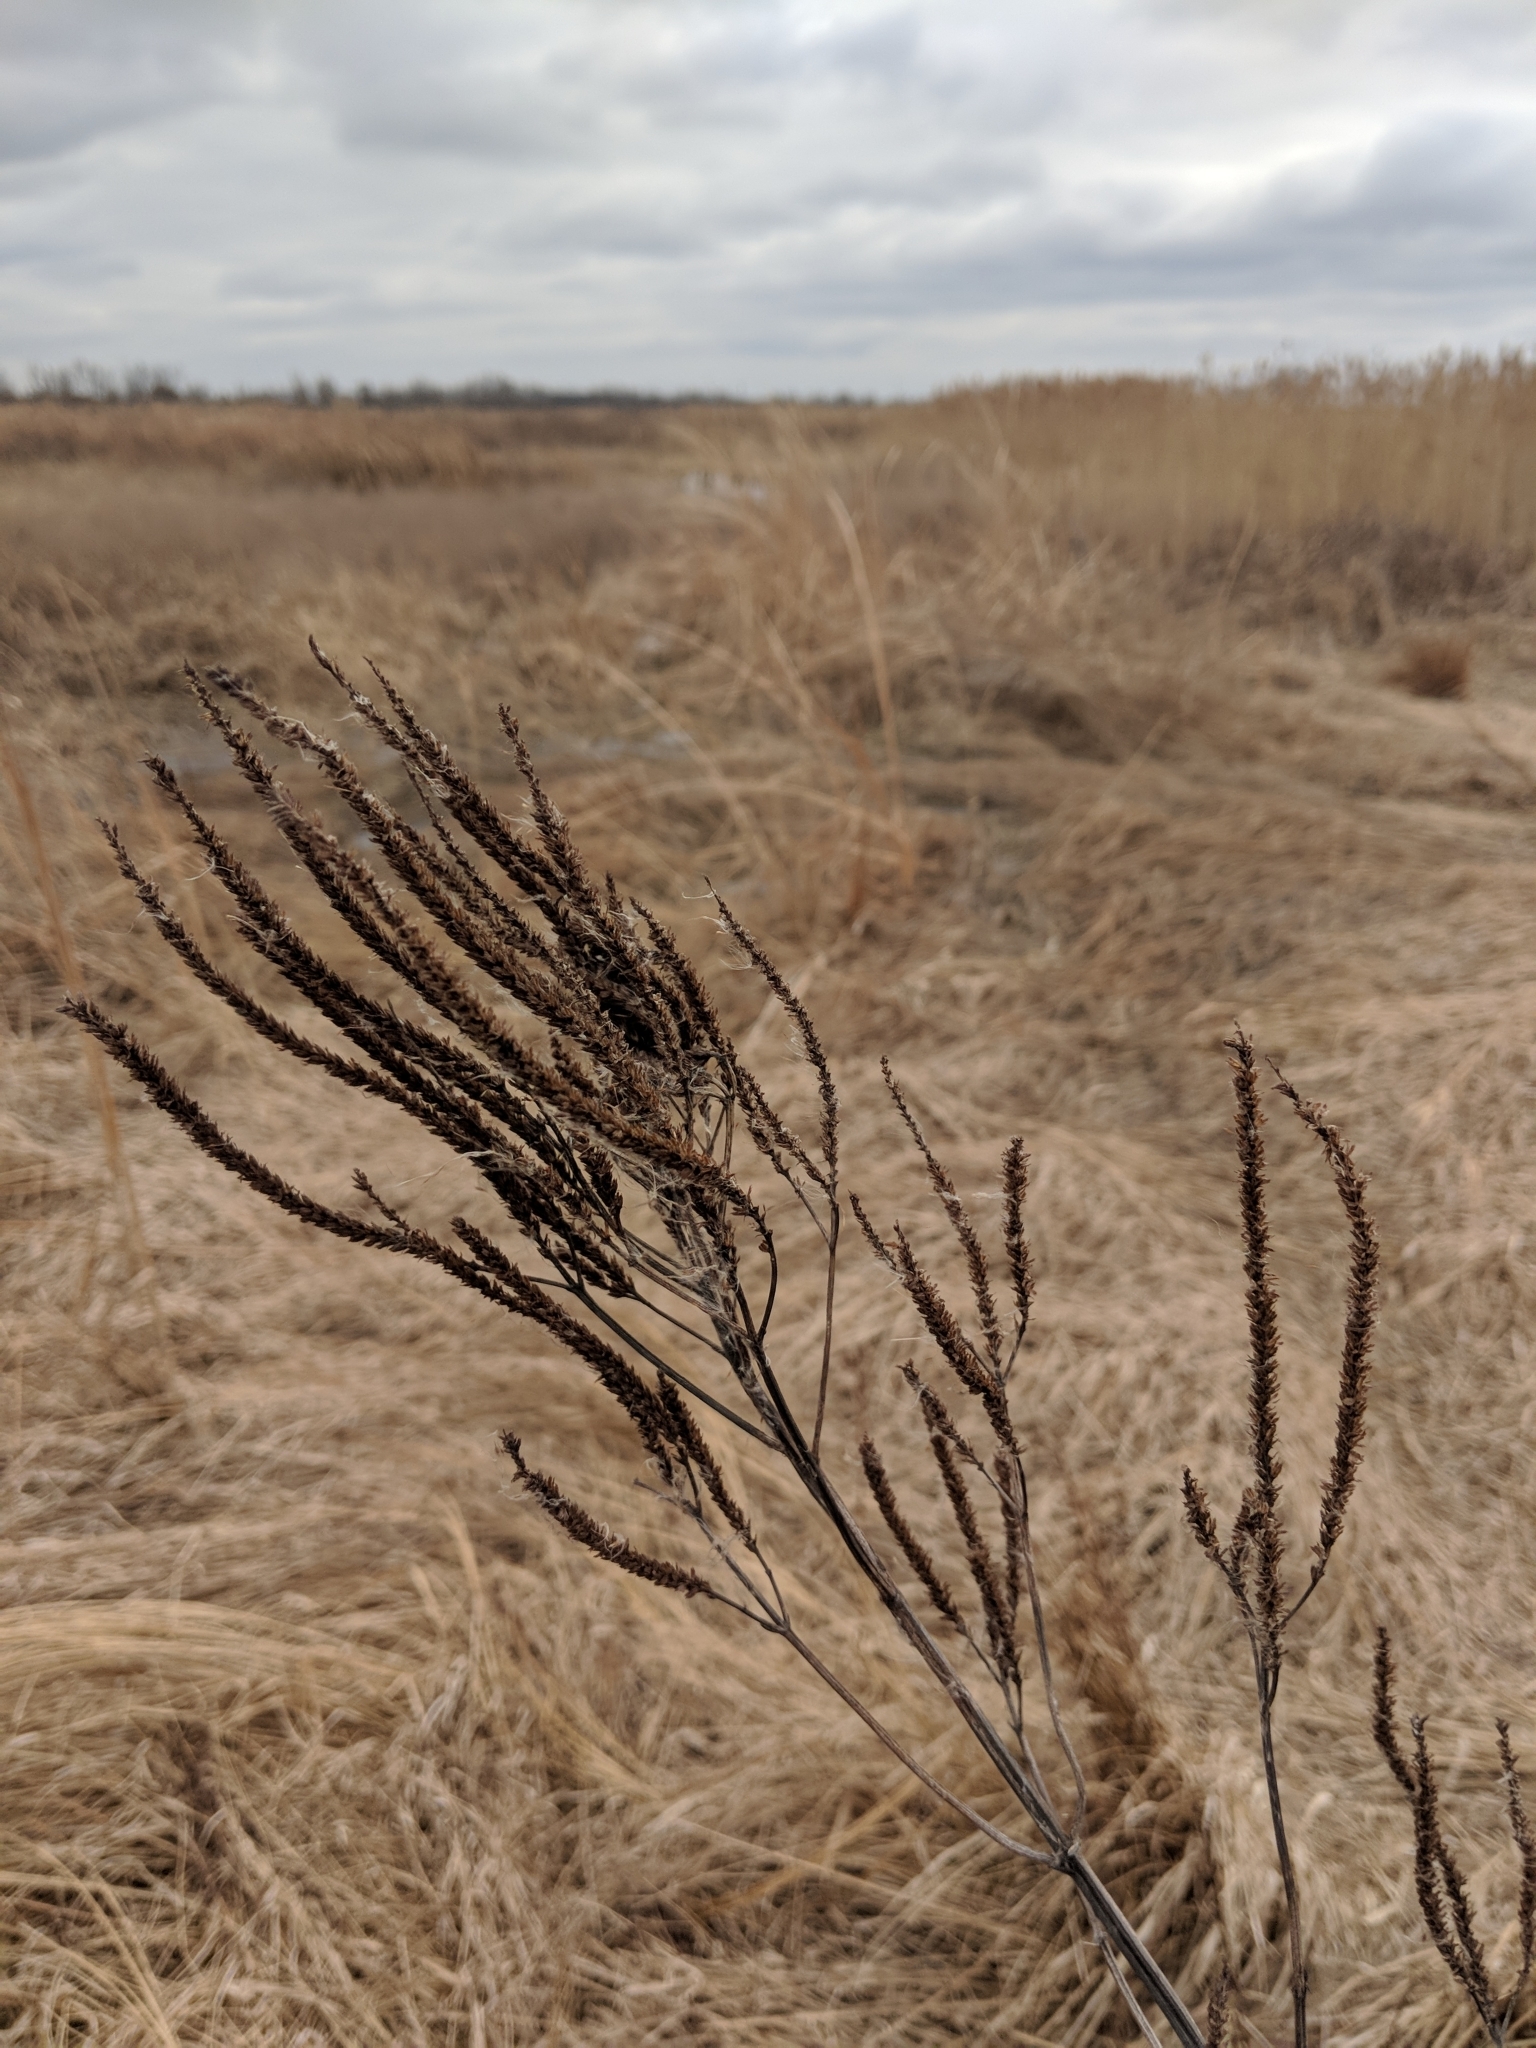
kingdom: Plantae
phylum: Tracheophyta
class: Magnoliopsida
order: Lamiales
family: Verbenaceae
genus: Verbena
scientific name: Verbena hastata
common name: American blue vervain
